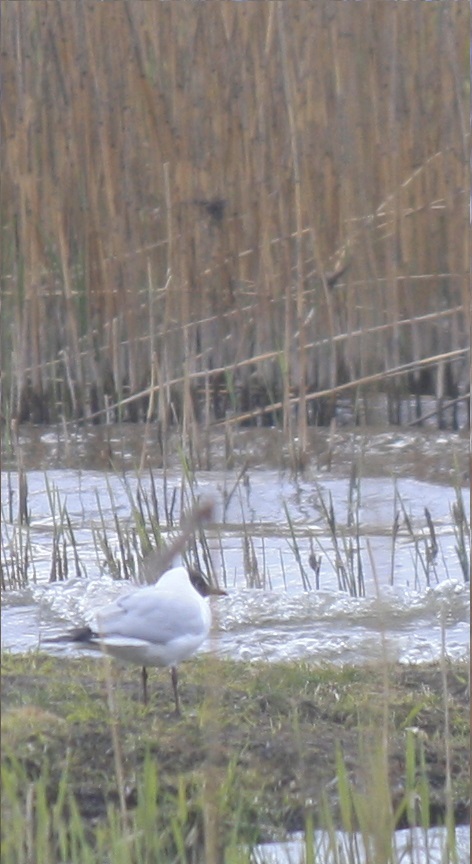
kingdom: Animalia
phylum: Chordata
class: Aves
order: Charadriiformes
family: Laridae
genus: Chroicocephalus
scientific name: Chroicocephalus ridibundus
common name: Black-headed gull
